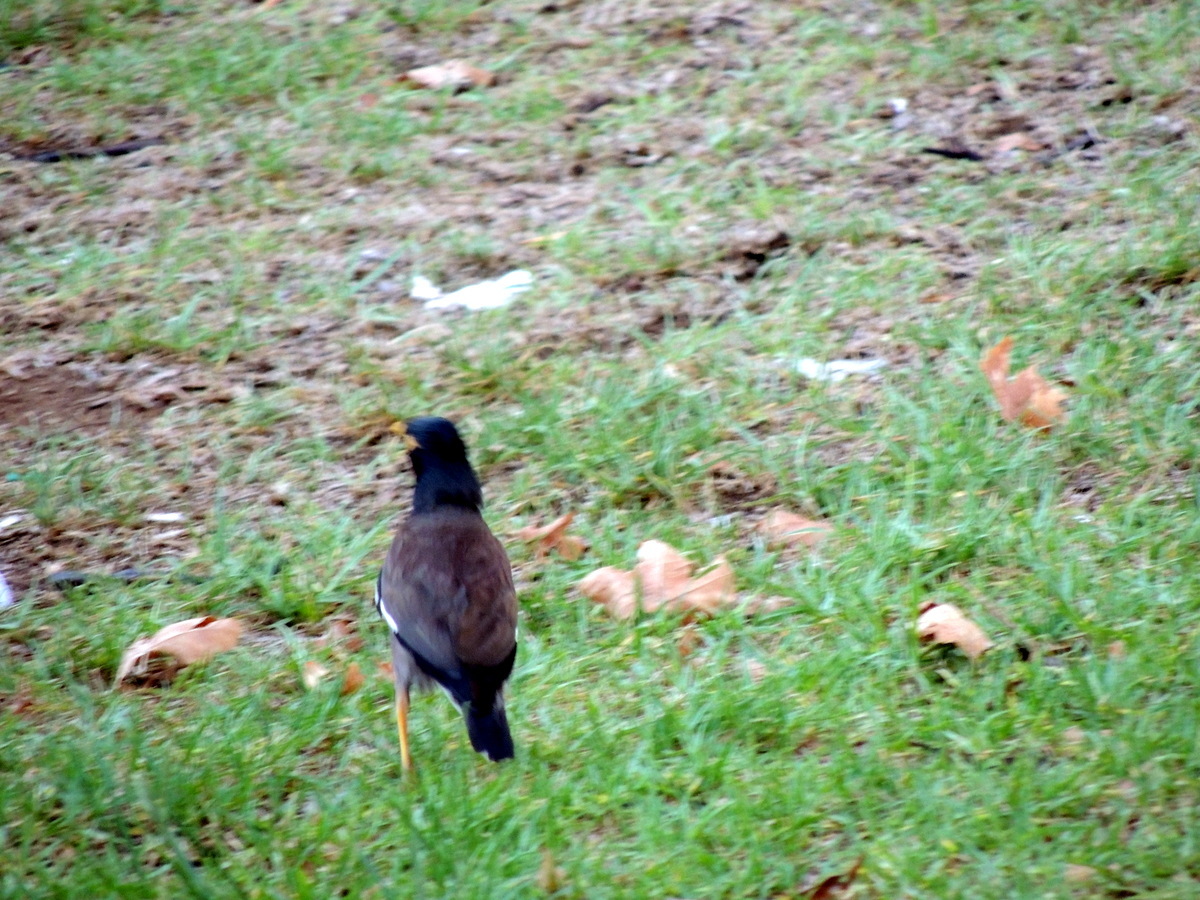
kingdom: Animalia
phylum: Chordata
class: Aves
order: Passeriformes
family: Sturnidae
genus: Acridotheres
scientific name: Acridotheres tristis
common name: Common myna
